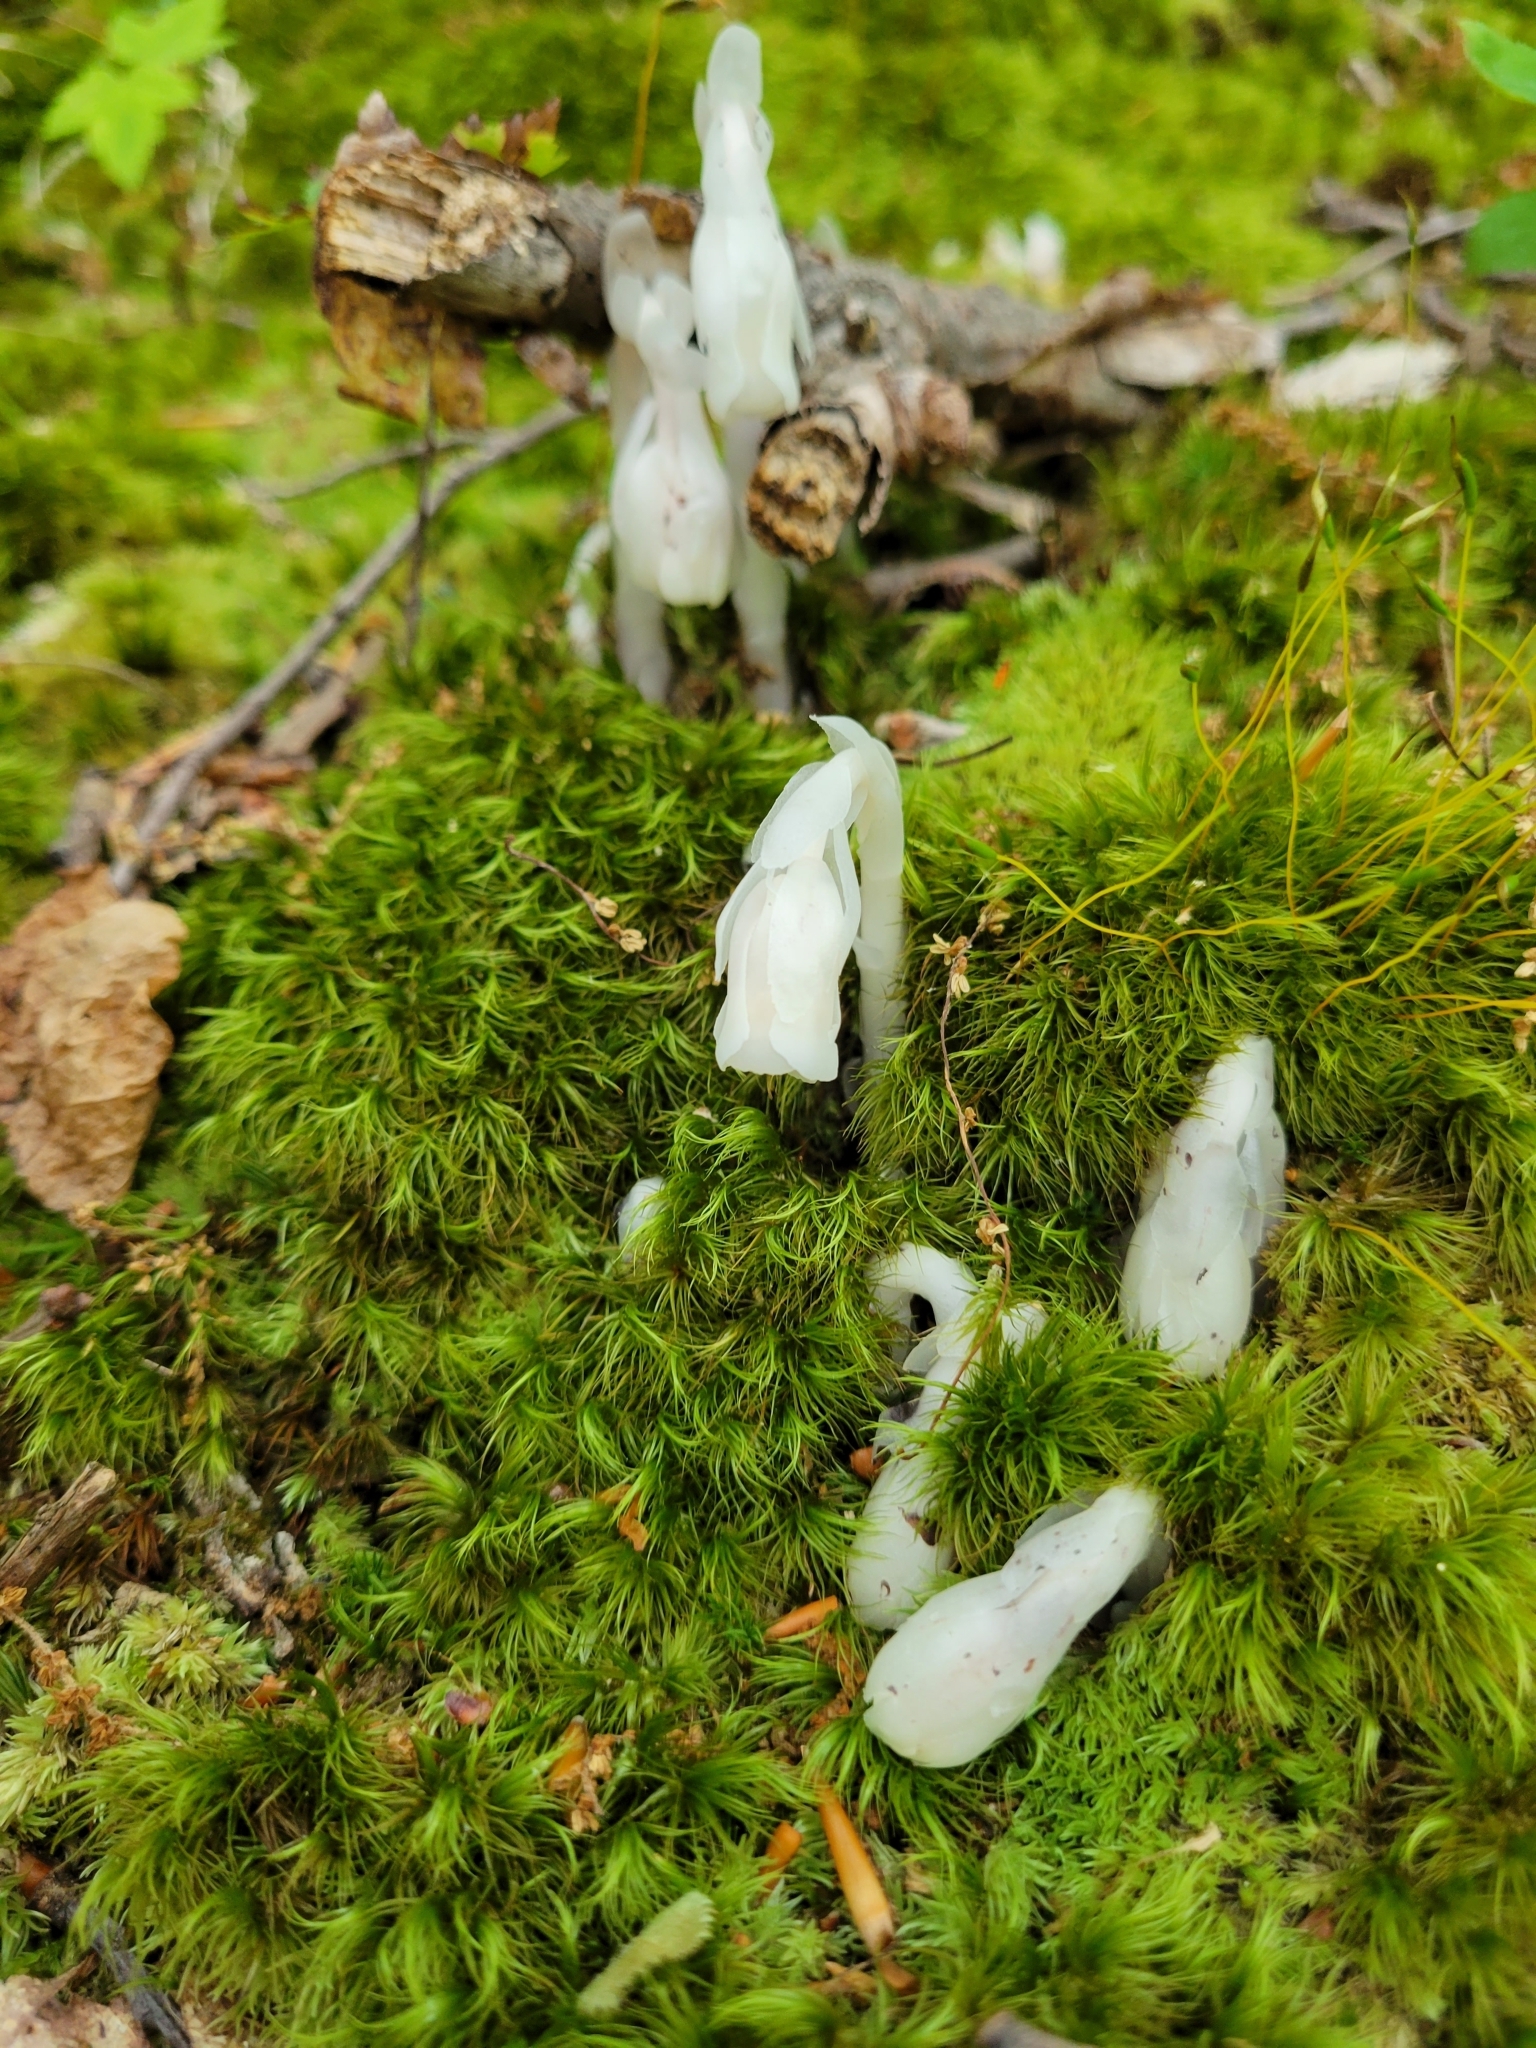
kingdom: Plantae
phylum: Tracheophyta
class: Magnoliopsida
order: Ericales
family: Ericaceae
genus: Monotropa
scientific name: Monotropa uniflora
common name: Convulsion root
